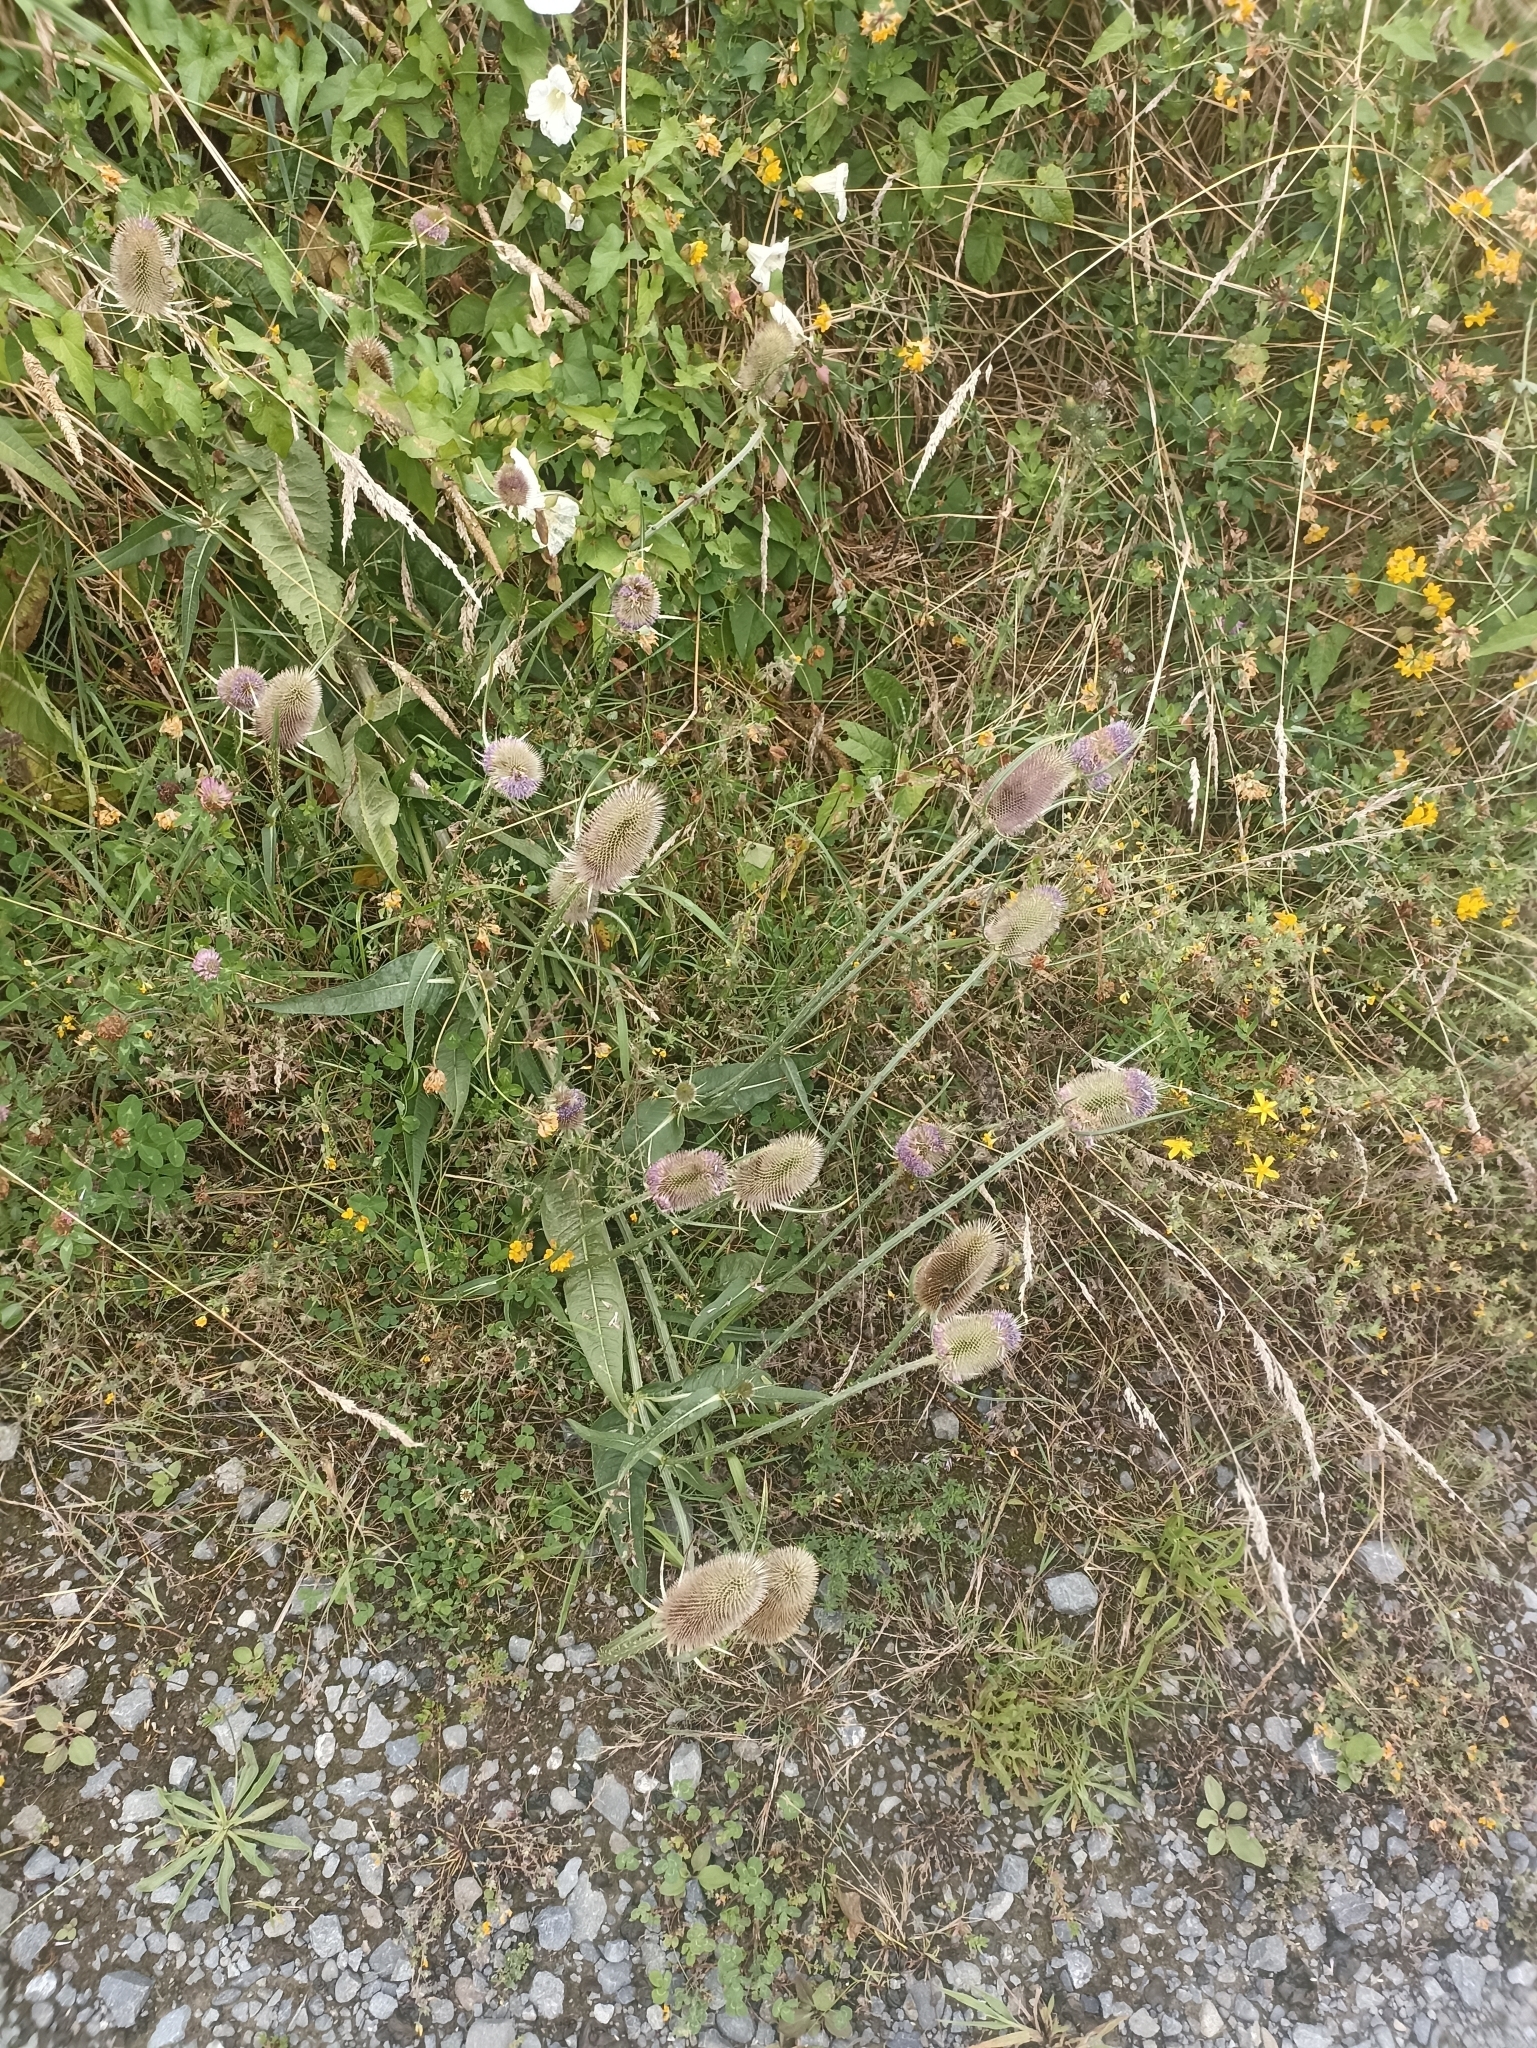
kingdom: Plantae
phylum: Tracheophyta
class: Magnoliopsida
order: Dipsacales
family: Caprifoliaceae
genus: Dipsacus
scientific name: Dipsacus fullonum
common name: Teasel
